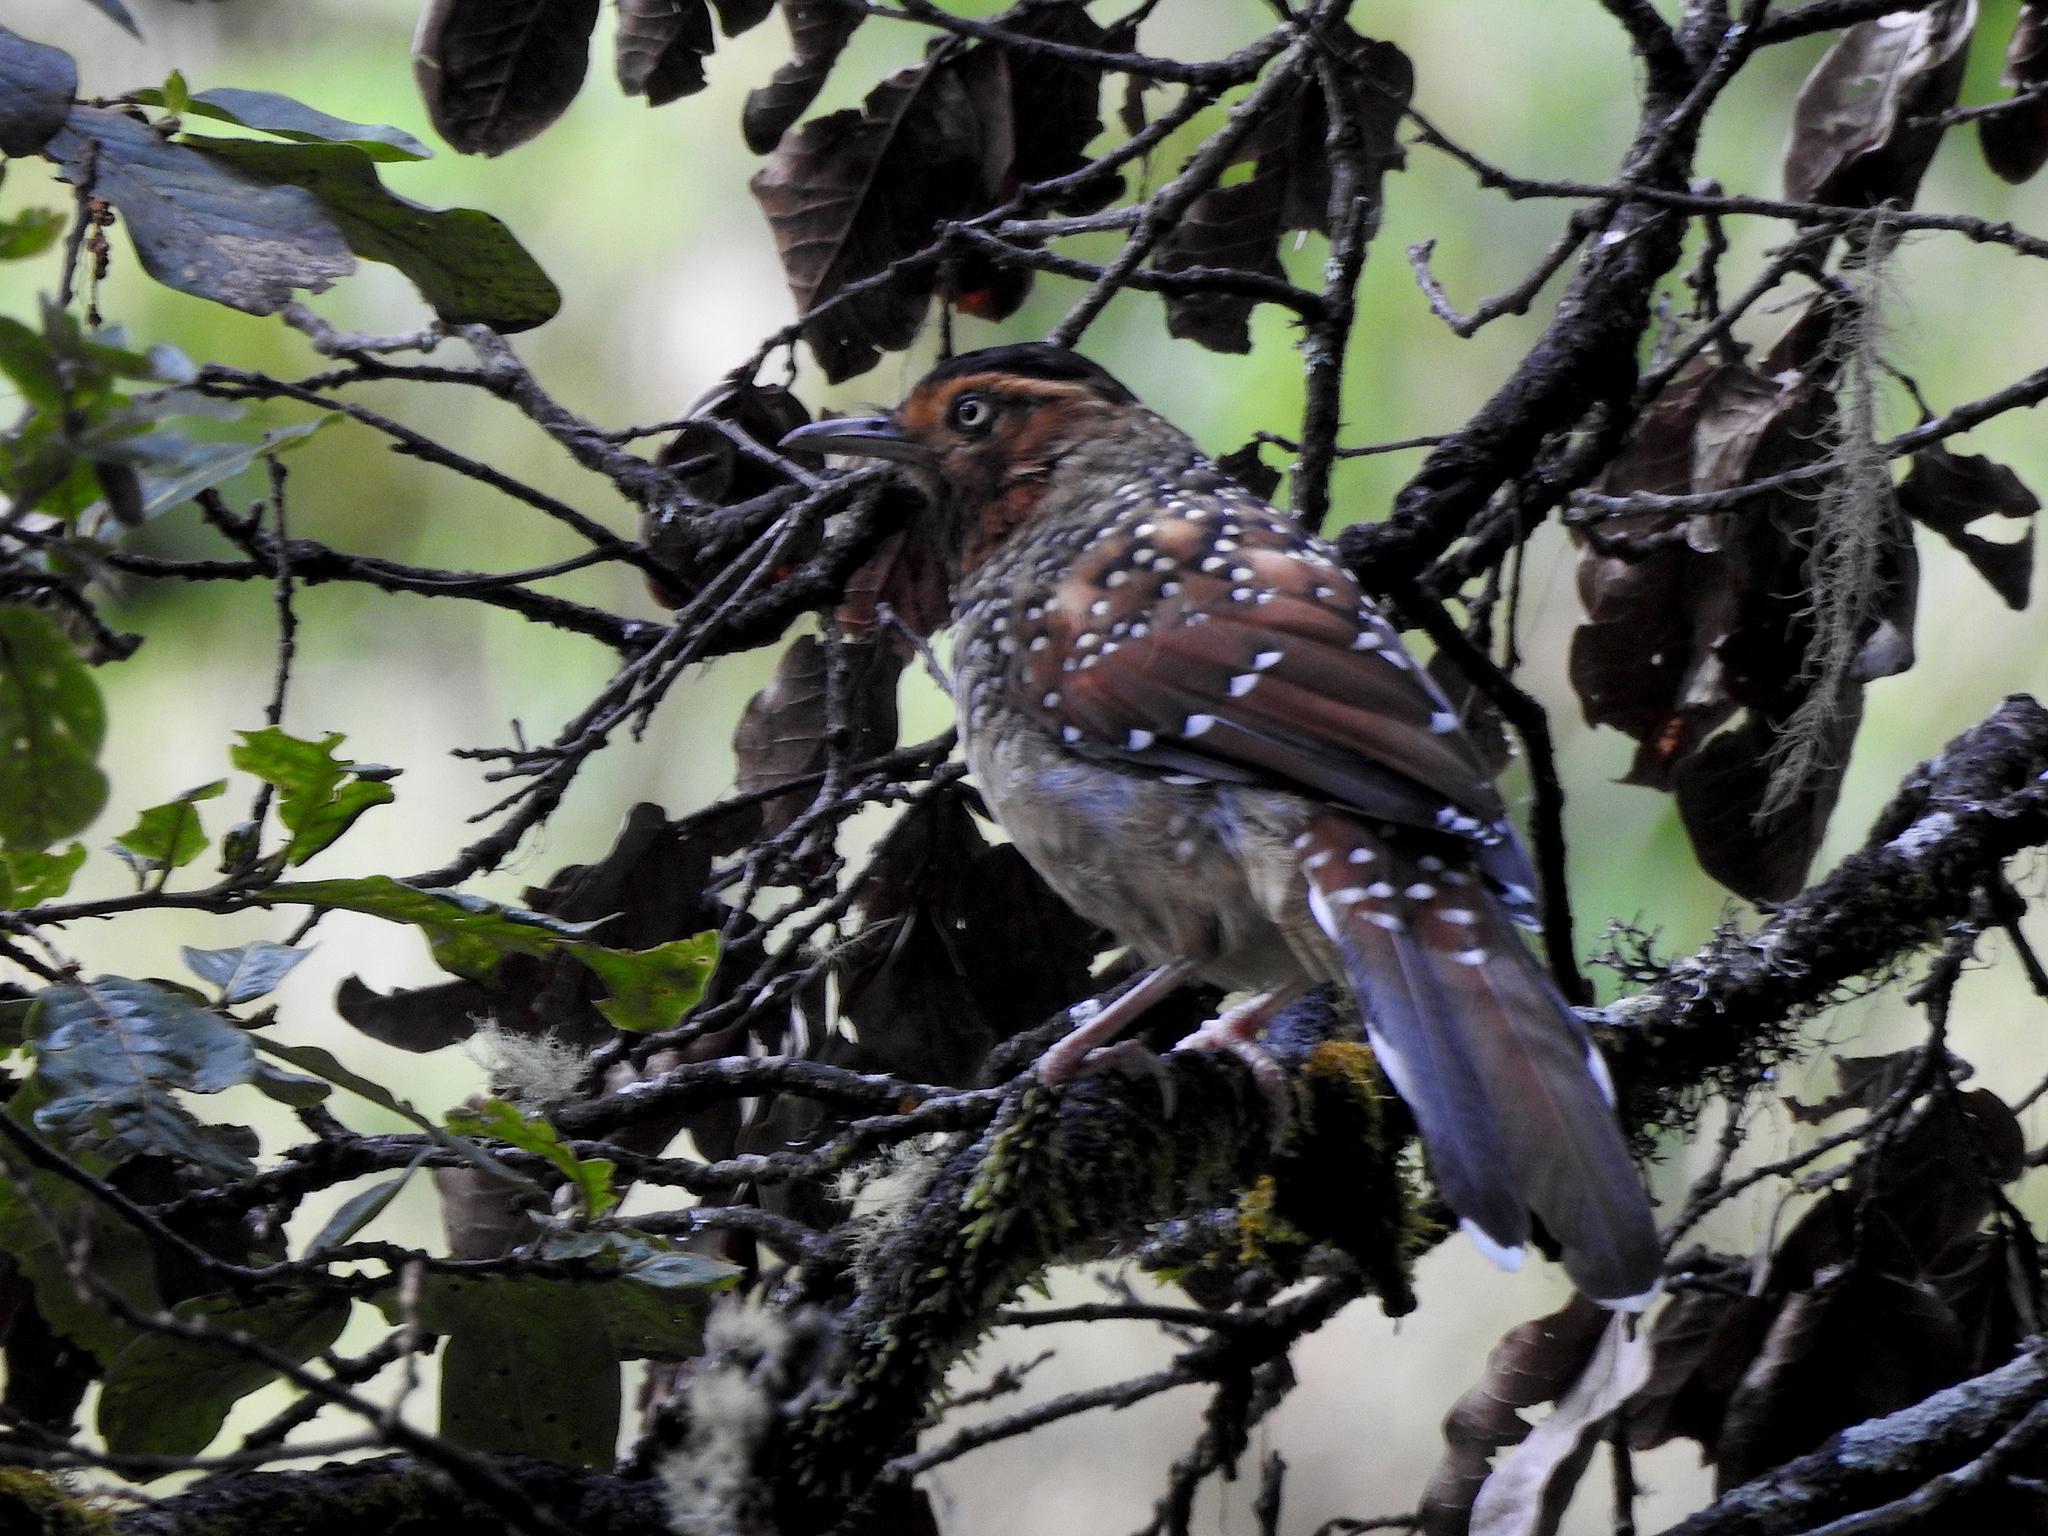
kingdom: Animalia
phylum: Chordata
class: Aves
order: Passeriformes
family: Leiothrichidae
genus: Garrulax
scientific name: Garrulax ocellatus
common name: Spotted laughingthrush
